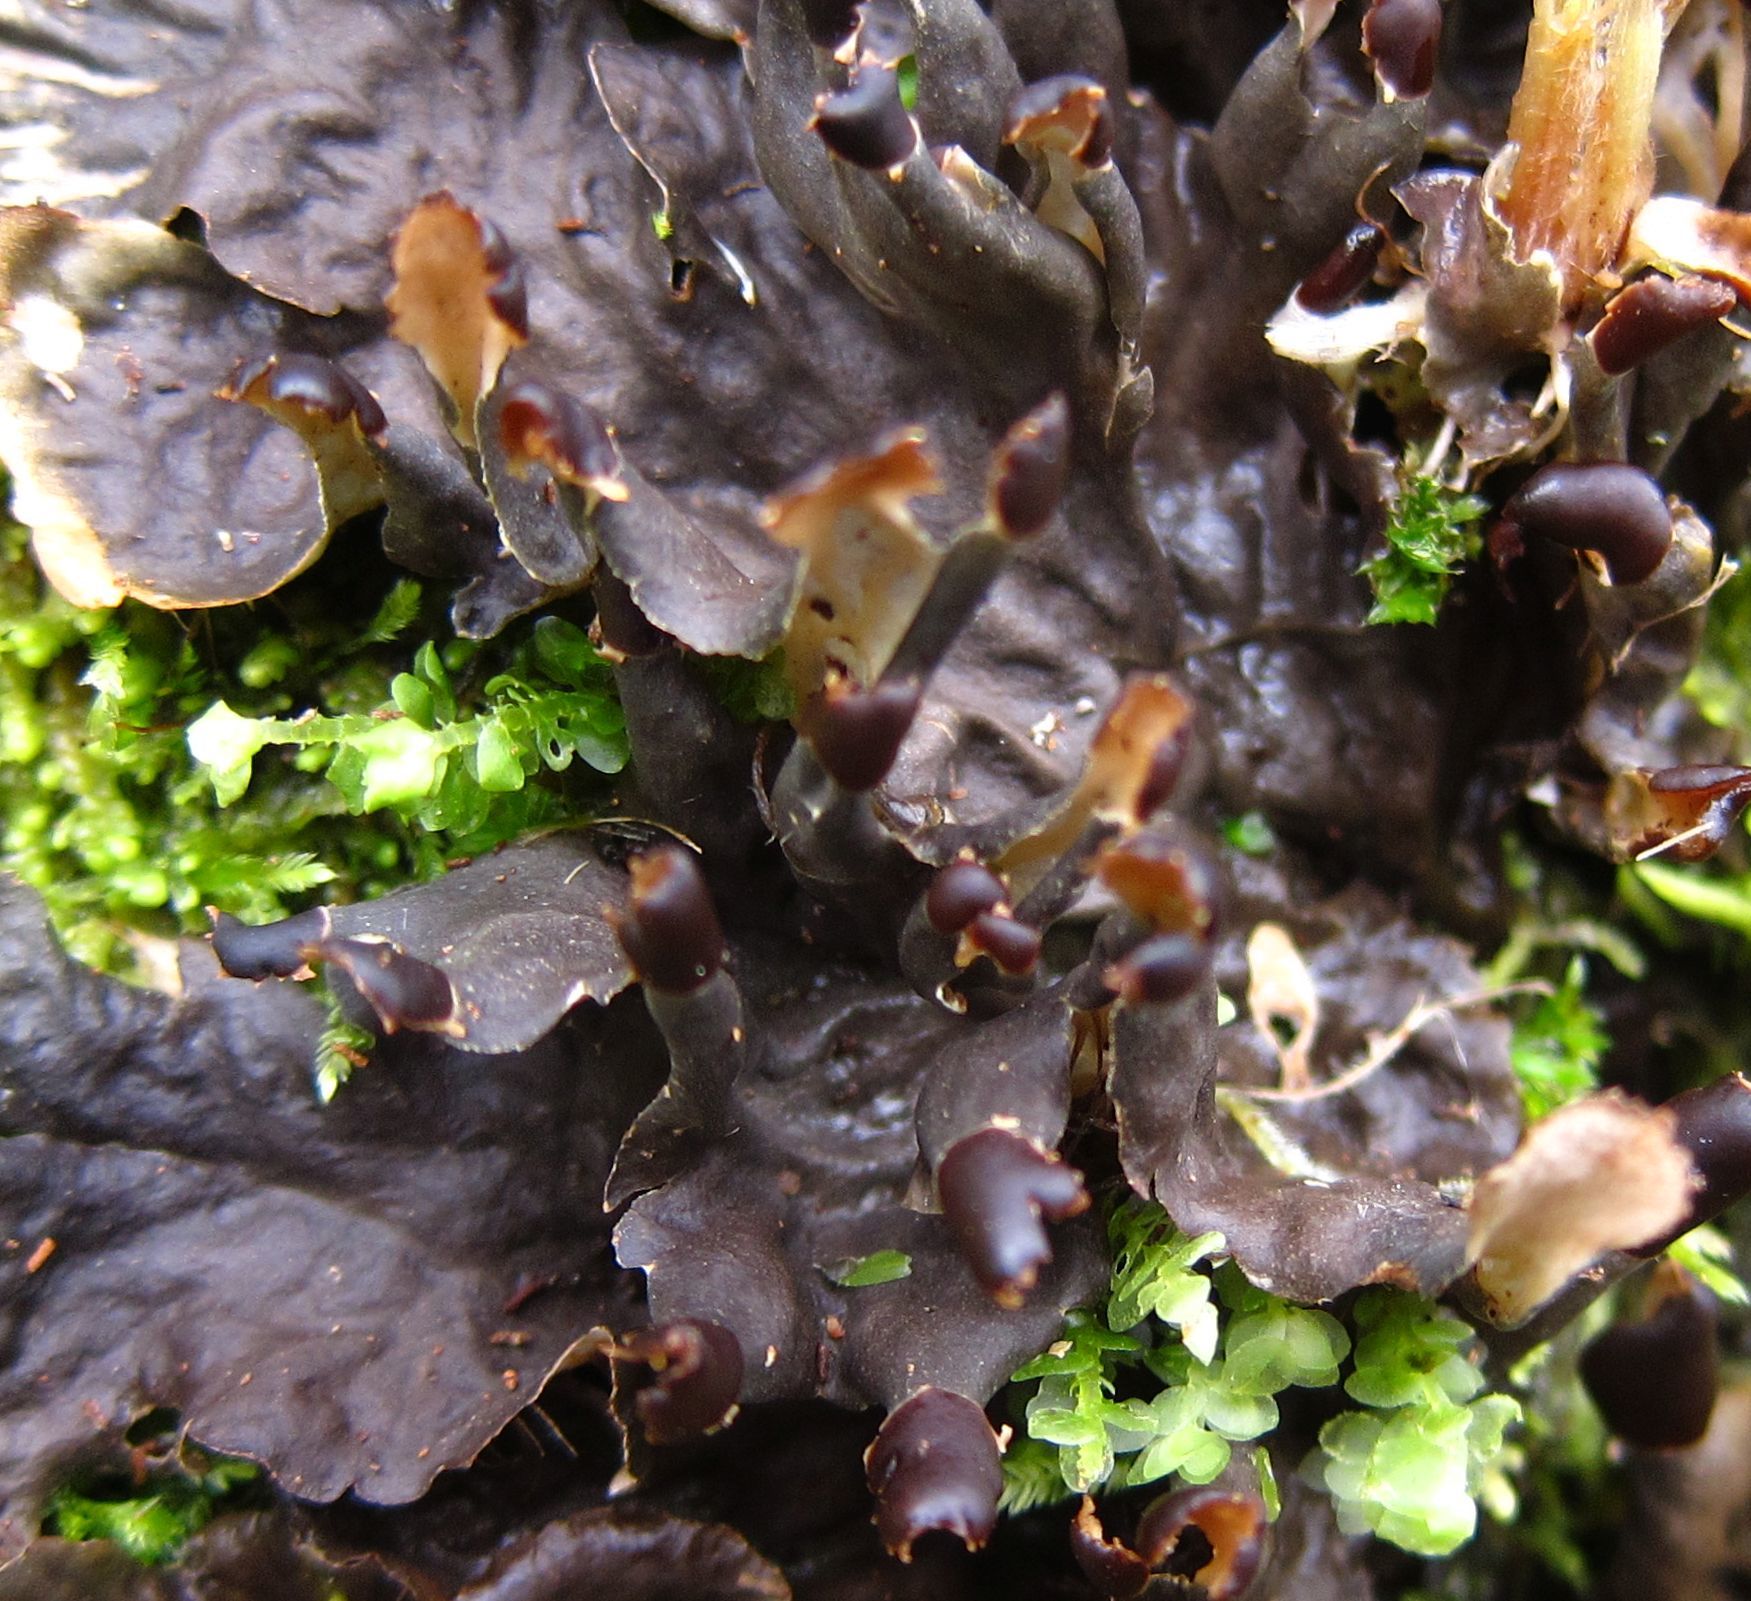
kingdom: Fungi
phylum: Ascomycota
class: Lecanoromycetes
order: Peltigerales
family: Peltigeraceae
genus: Peltigera
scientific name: Peltigera dolichorhiza
